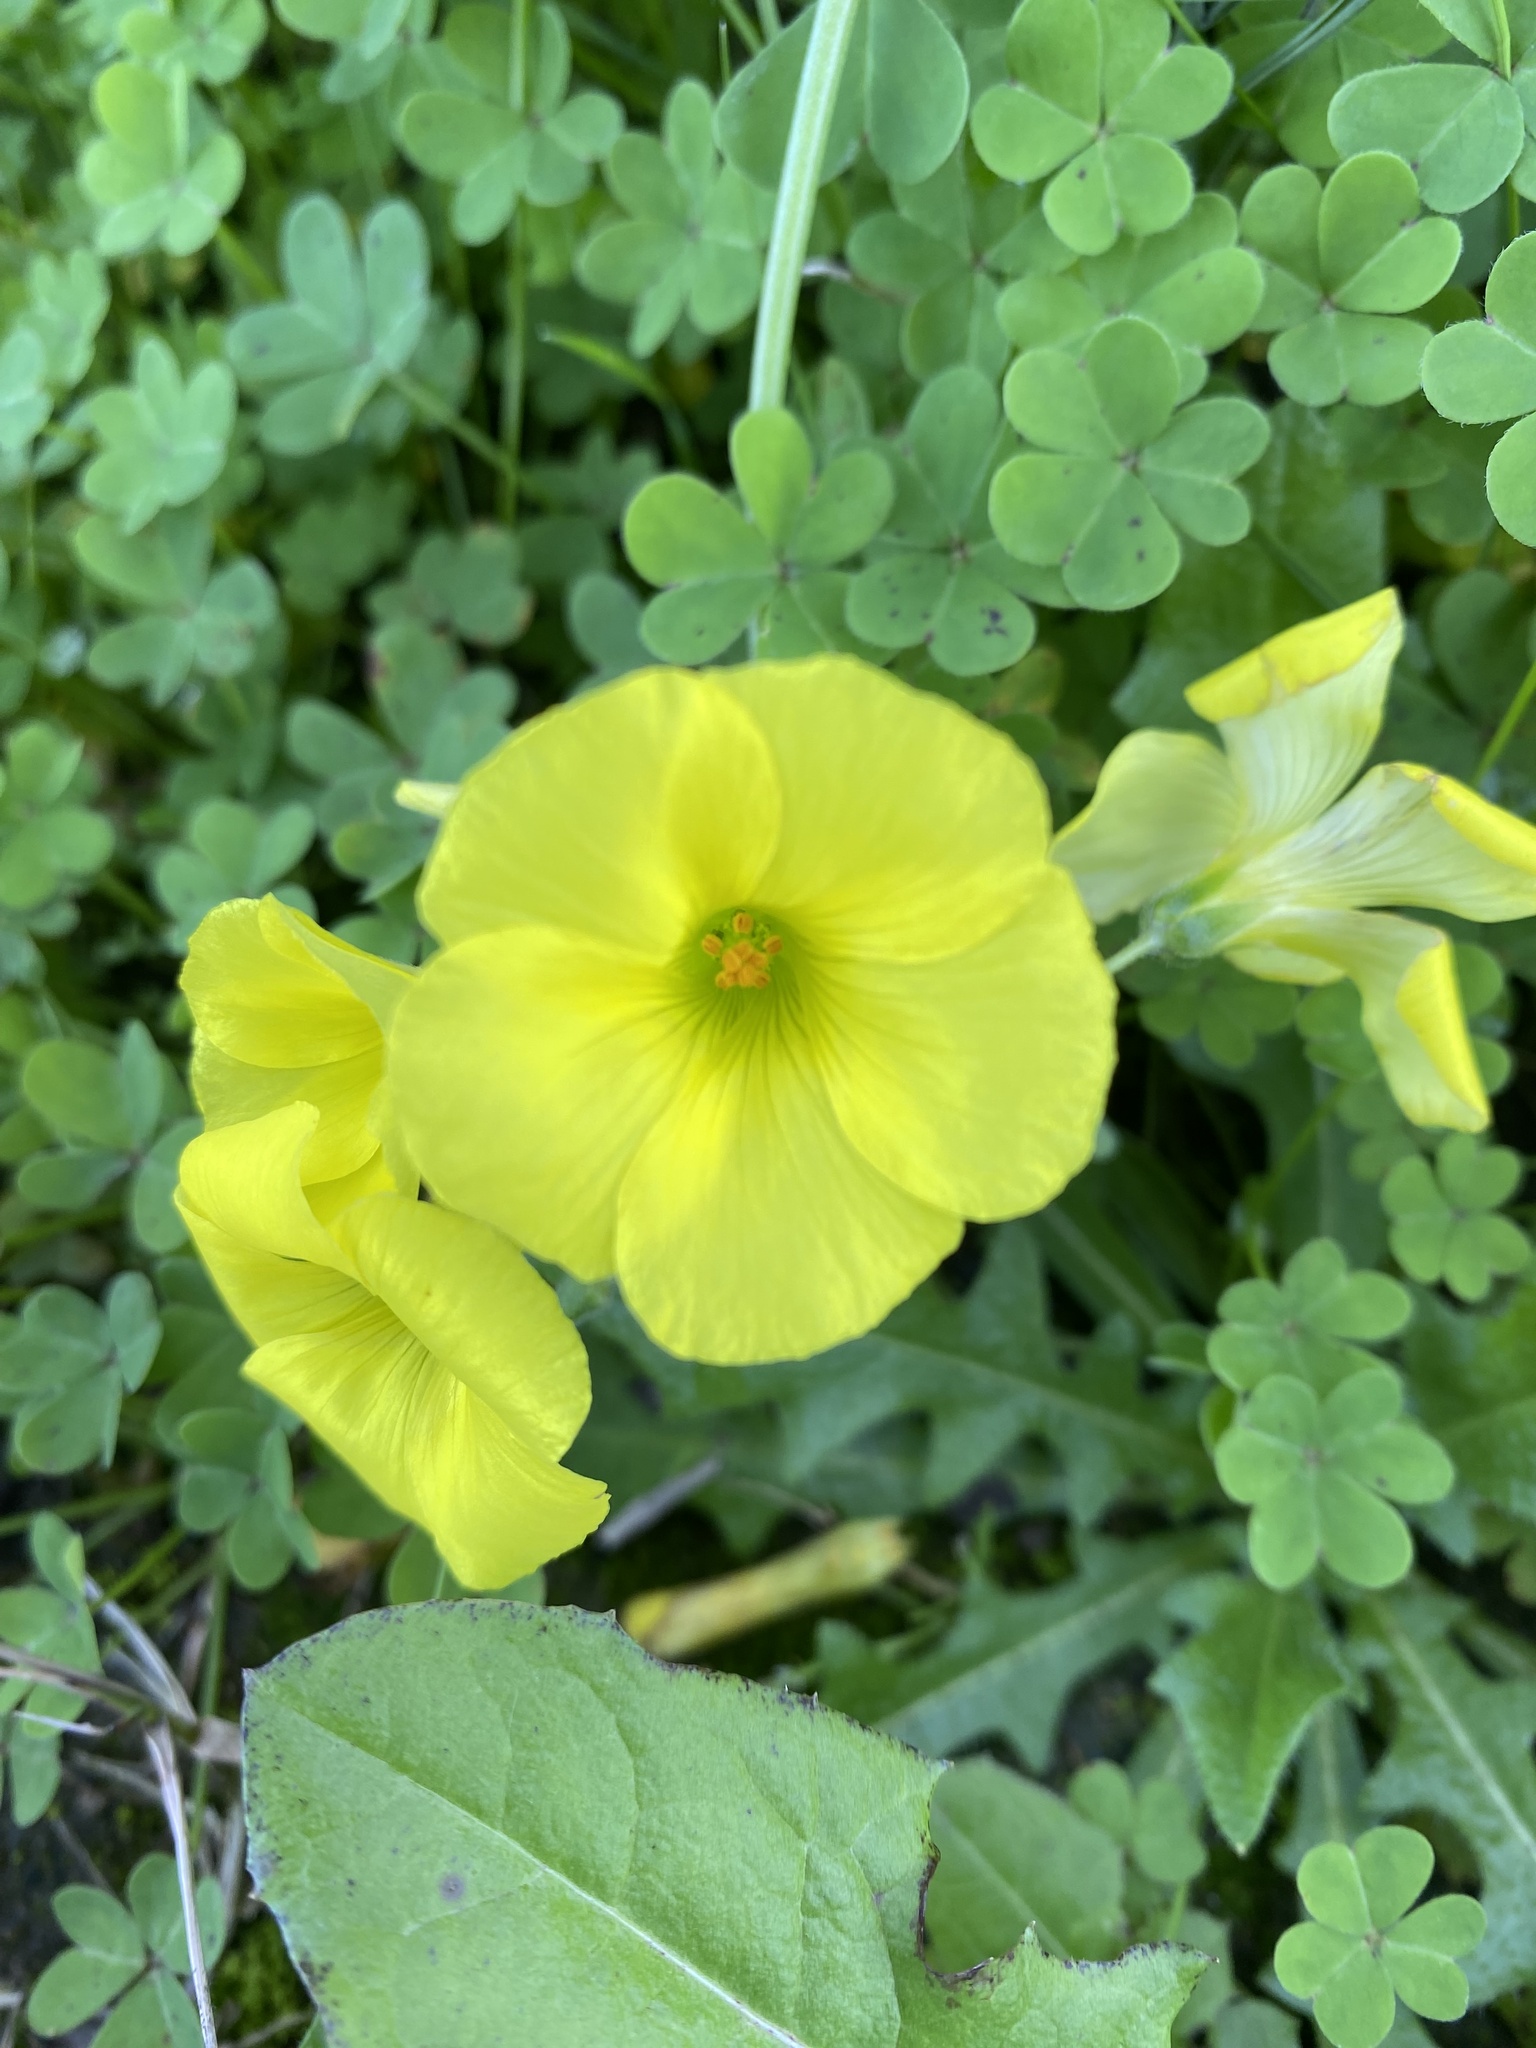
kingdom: Plantae
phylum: Tracheophyta
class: Magnoliopsida
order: Oxalidales
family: Oxalidaceae
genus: Oxalis
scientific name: Oxalis pes-caprae
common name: Bermuda-buttercup
